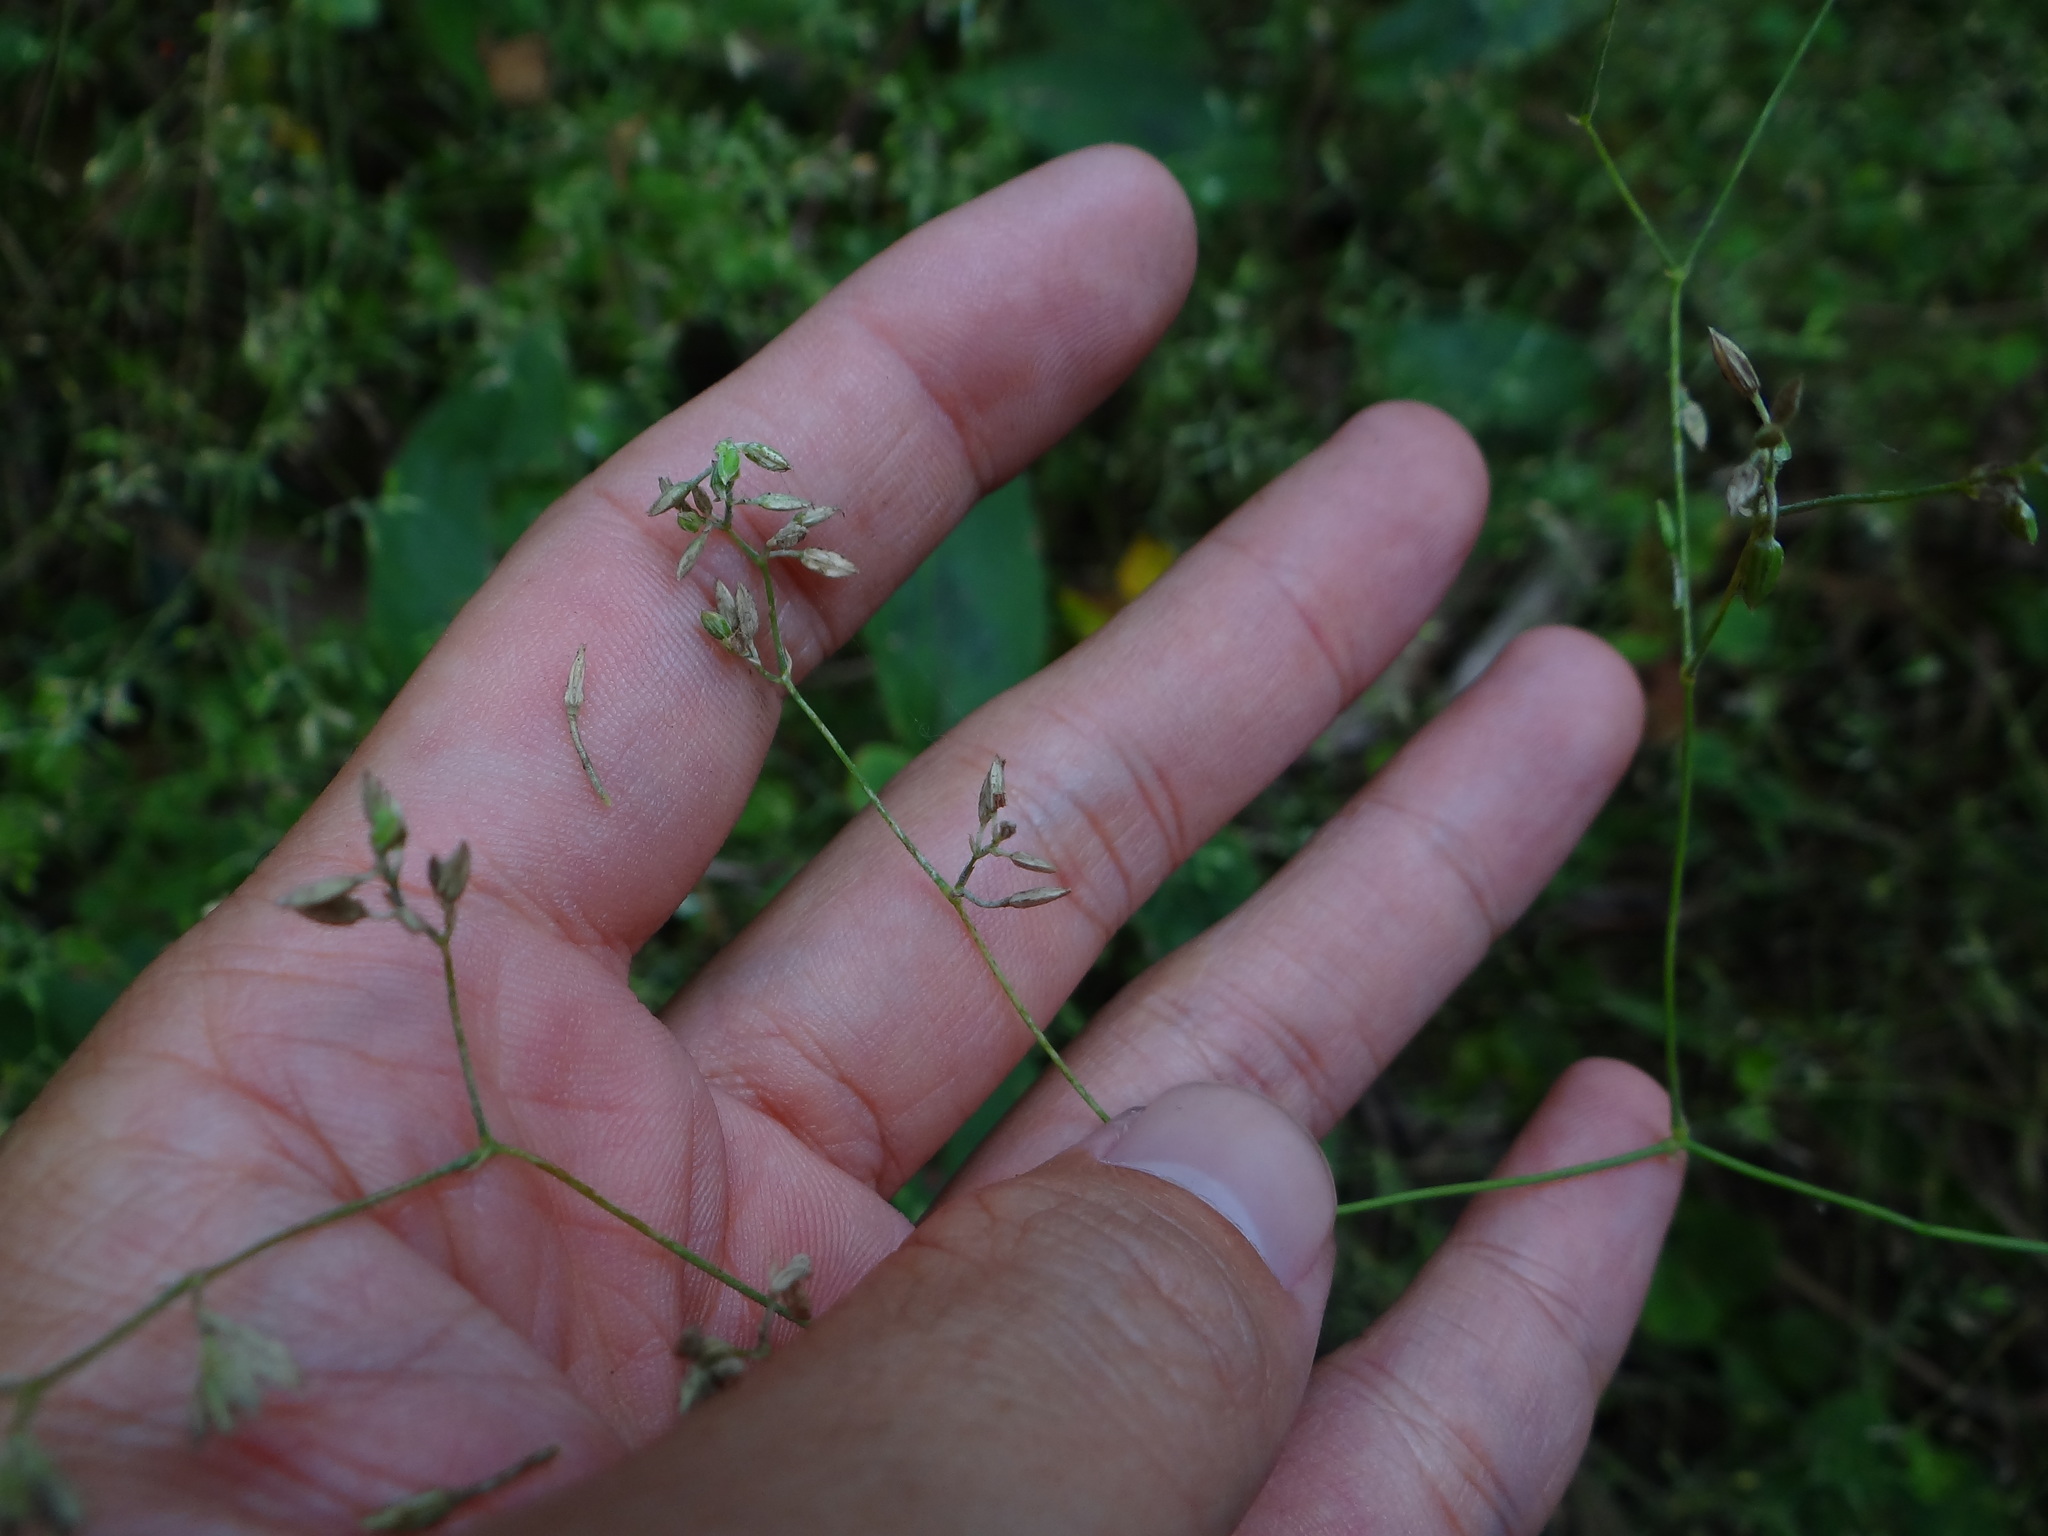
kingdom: Plantae
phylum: Tracheophyta
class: Magnoliopsida
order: Caryophyllales
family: Caryophyllaceae
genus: Drymaria
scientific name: Drymaria cordata
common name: Whitesnow
